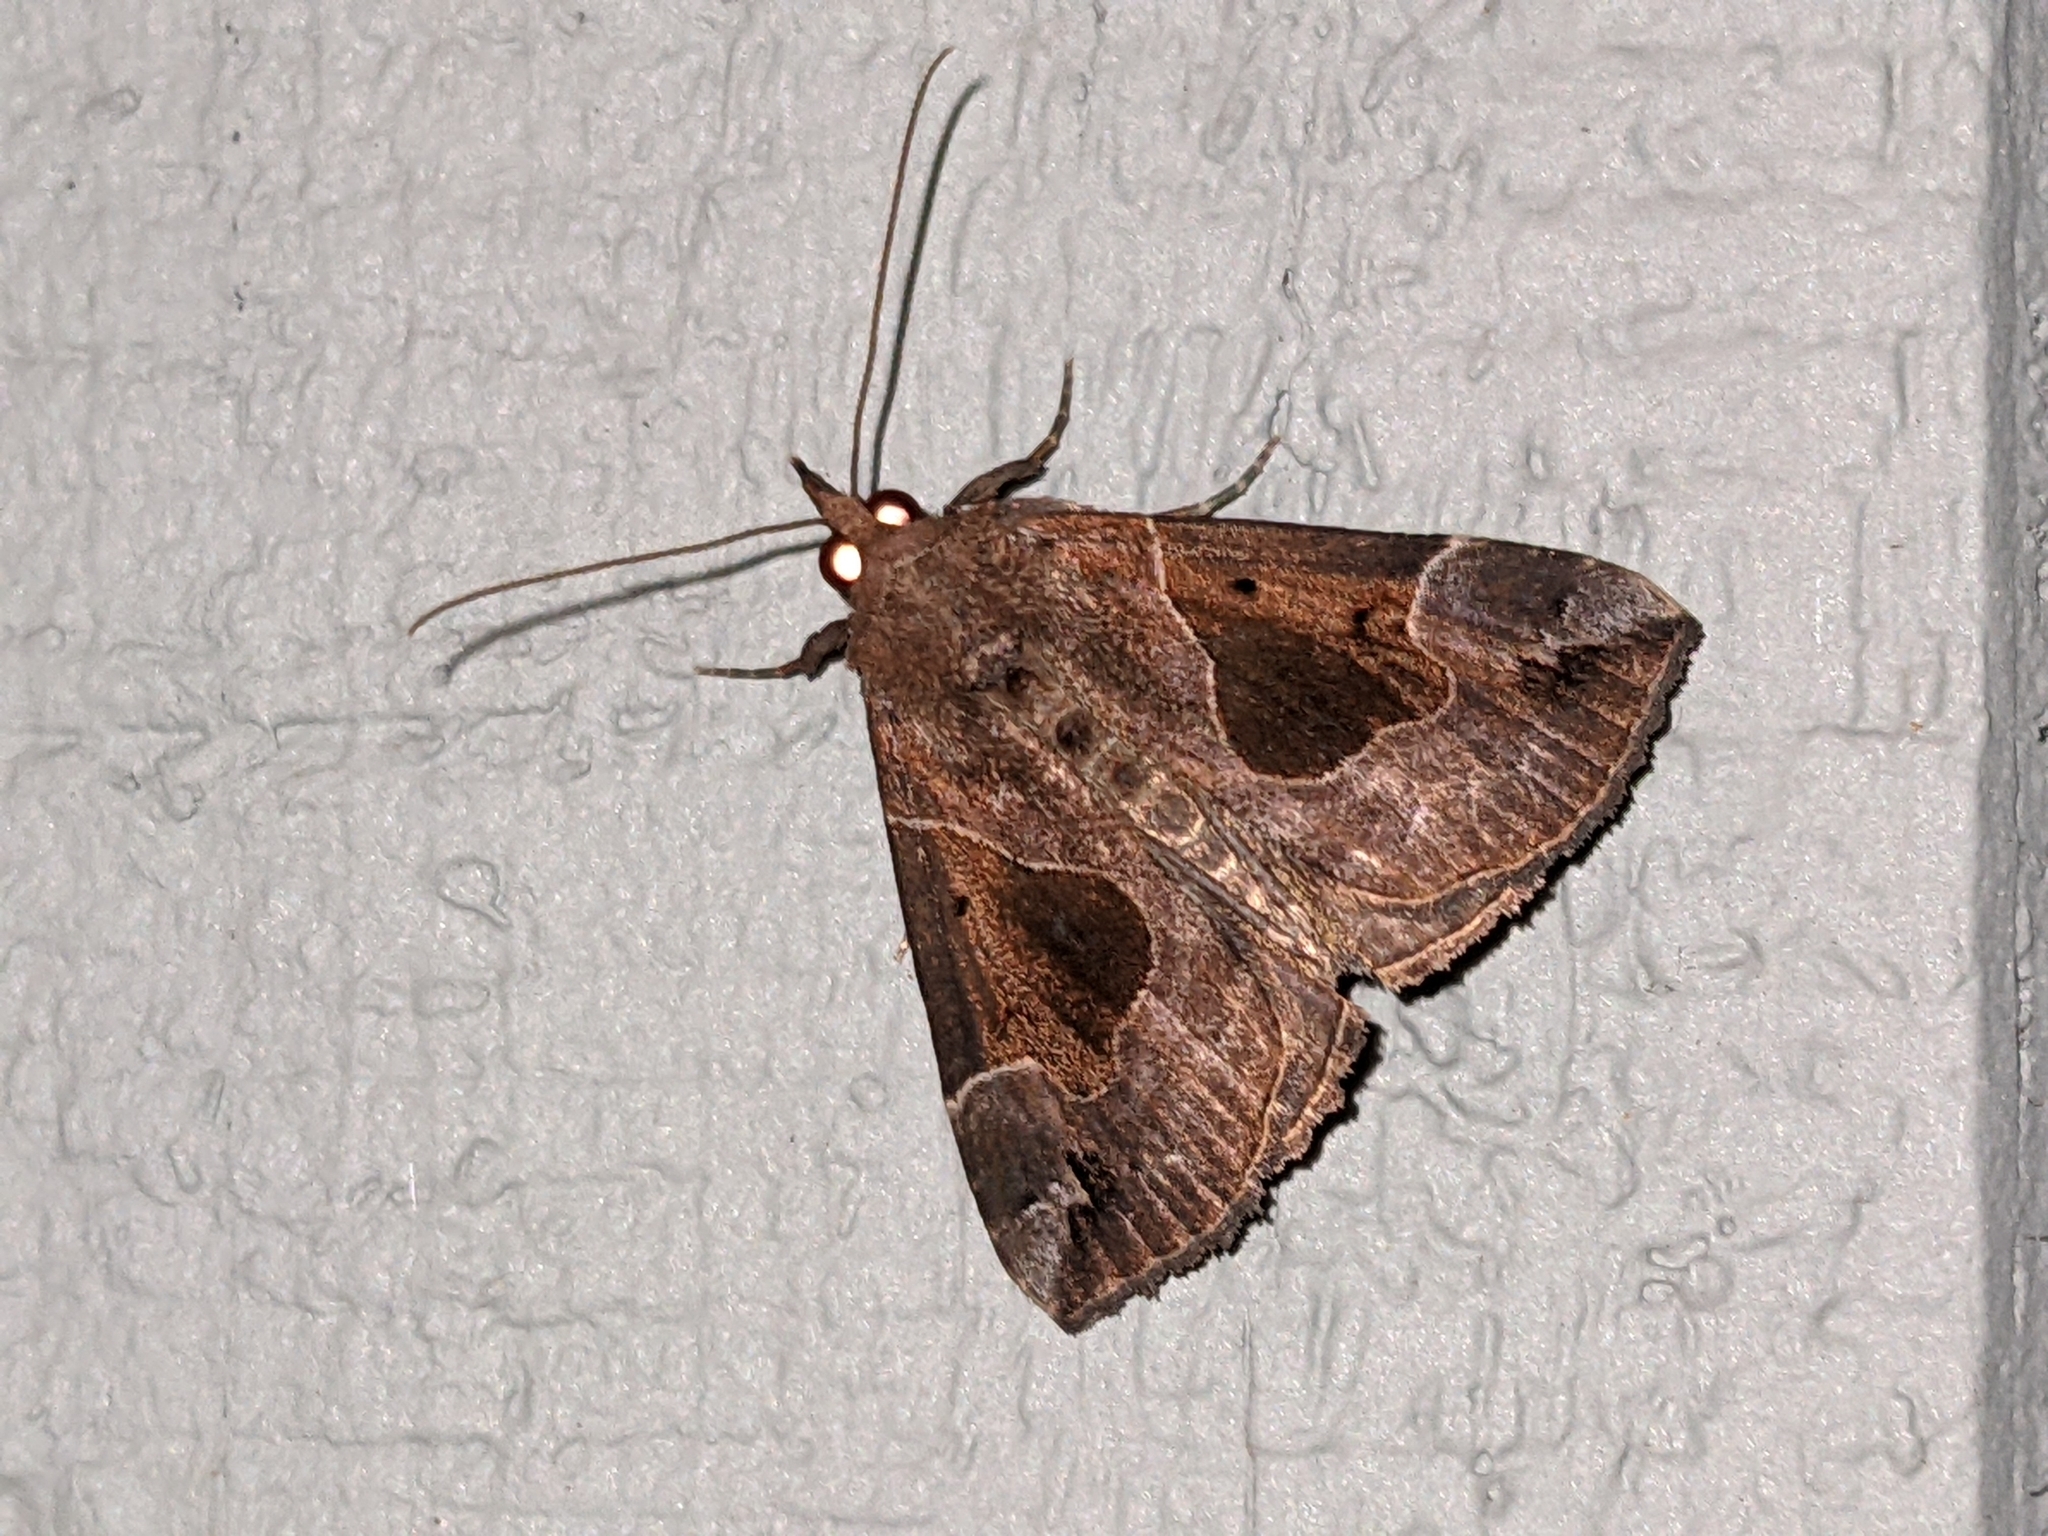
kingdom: Animalia
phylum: Arthropoda
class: Insecta
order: Lepidoptera
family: Erebidae
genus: Hypena
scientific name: Hypena manalis
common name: Flowing-line bomolocha moth
